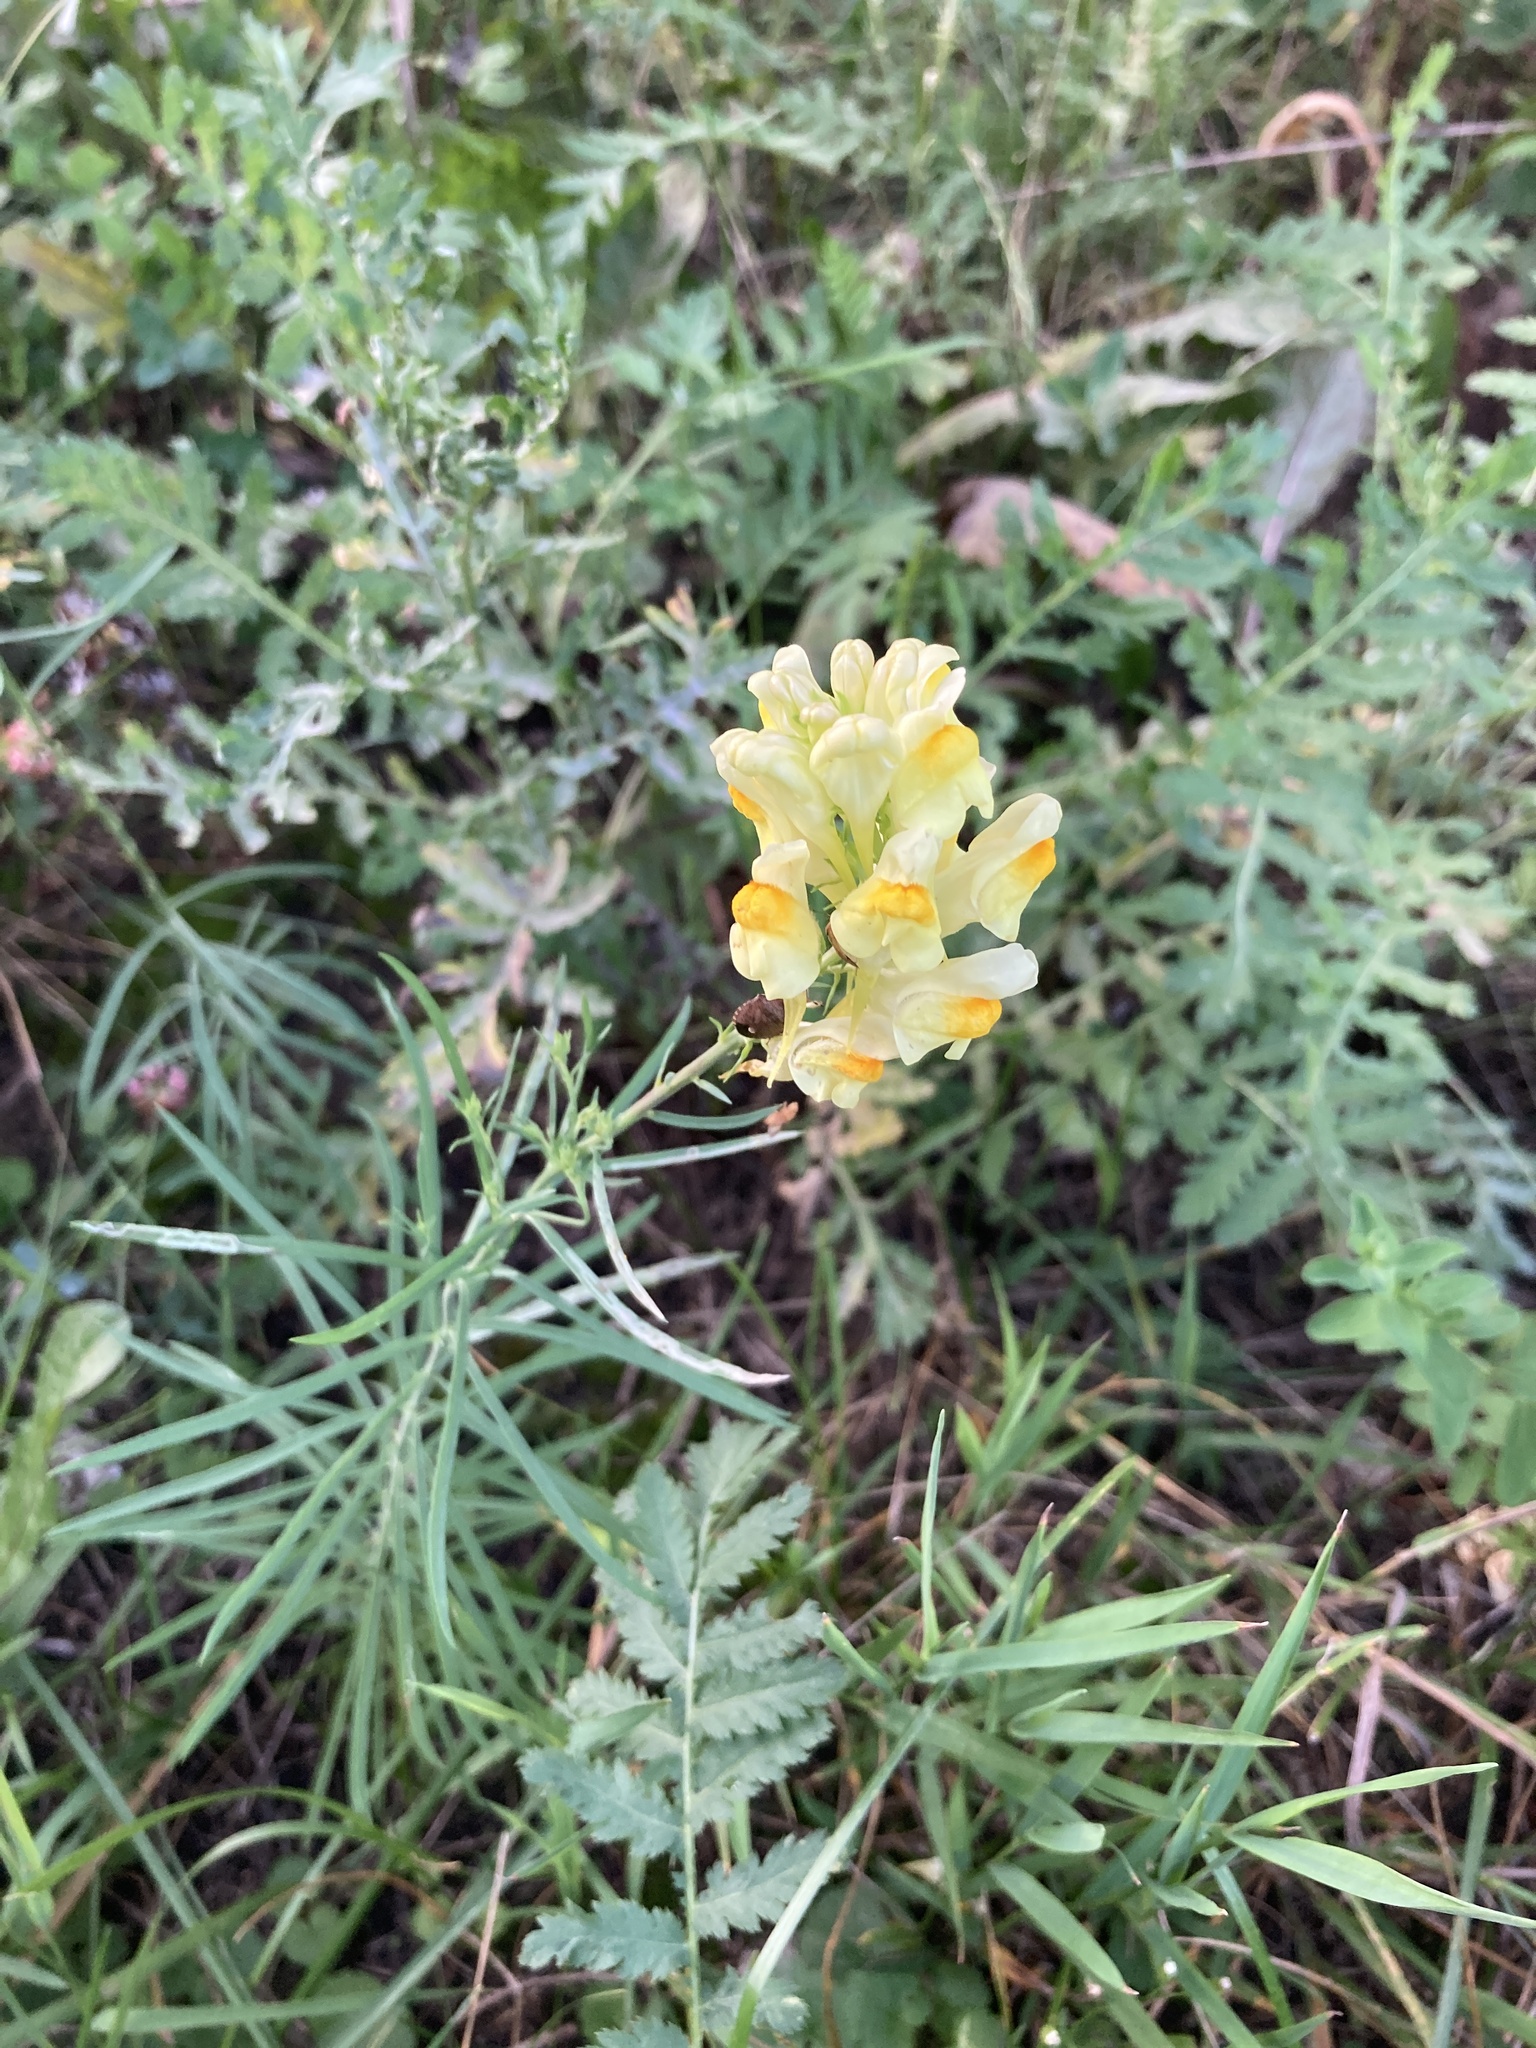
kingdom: Plantae
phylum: Tracheophyta
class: Magnoliopsida
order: Lamiales
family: Plantaginaceae
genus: Linaria
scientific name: Linaria vulgaris
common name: Butter and eggs
